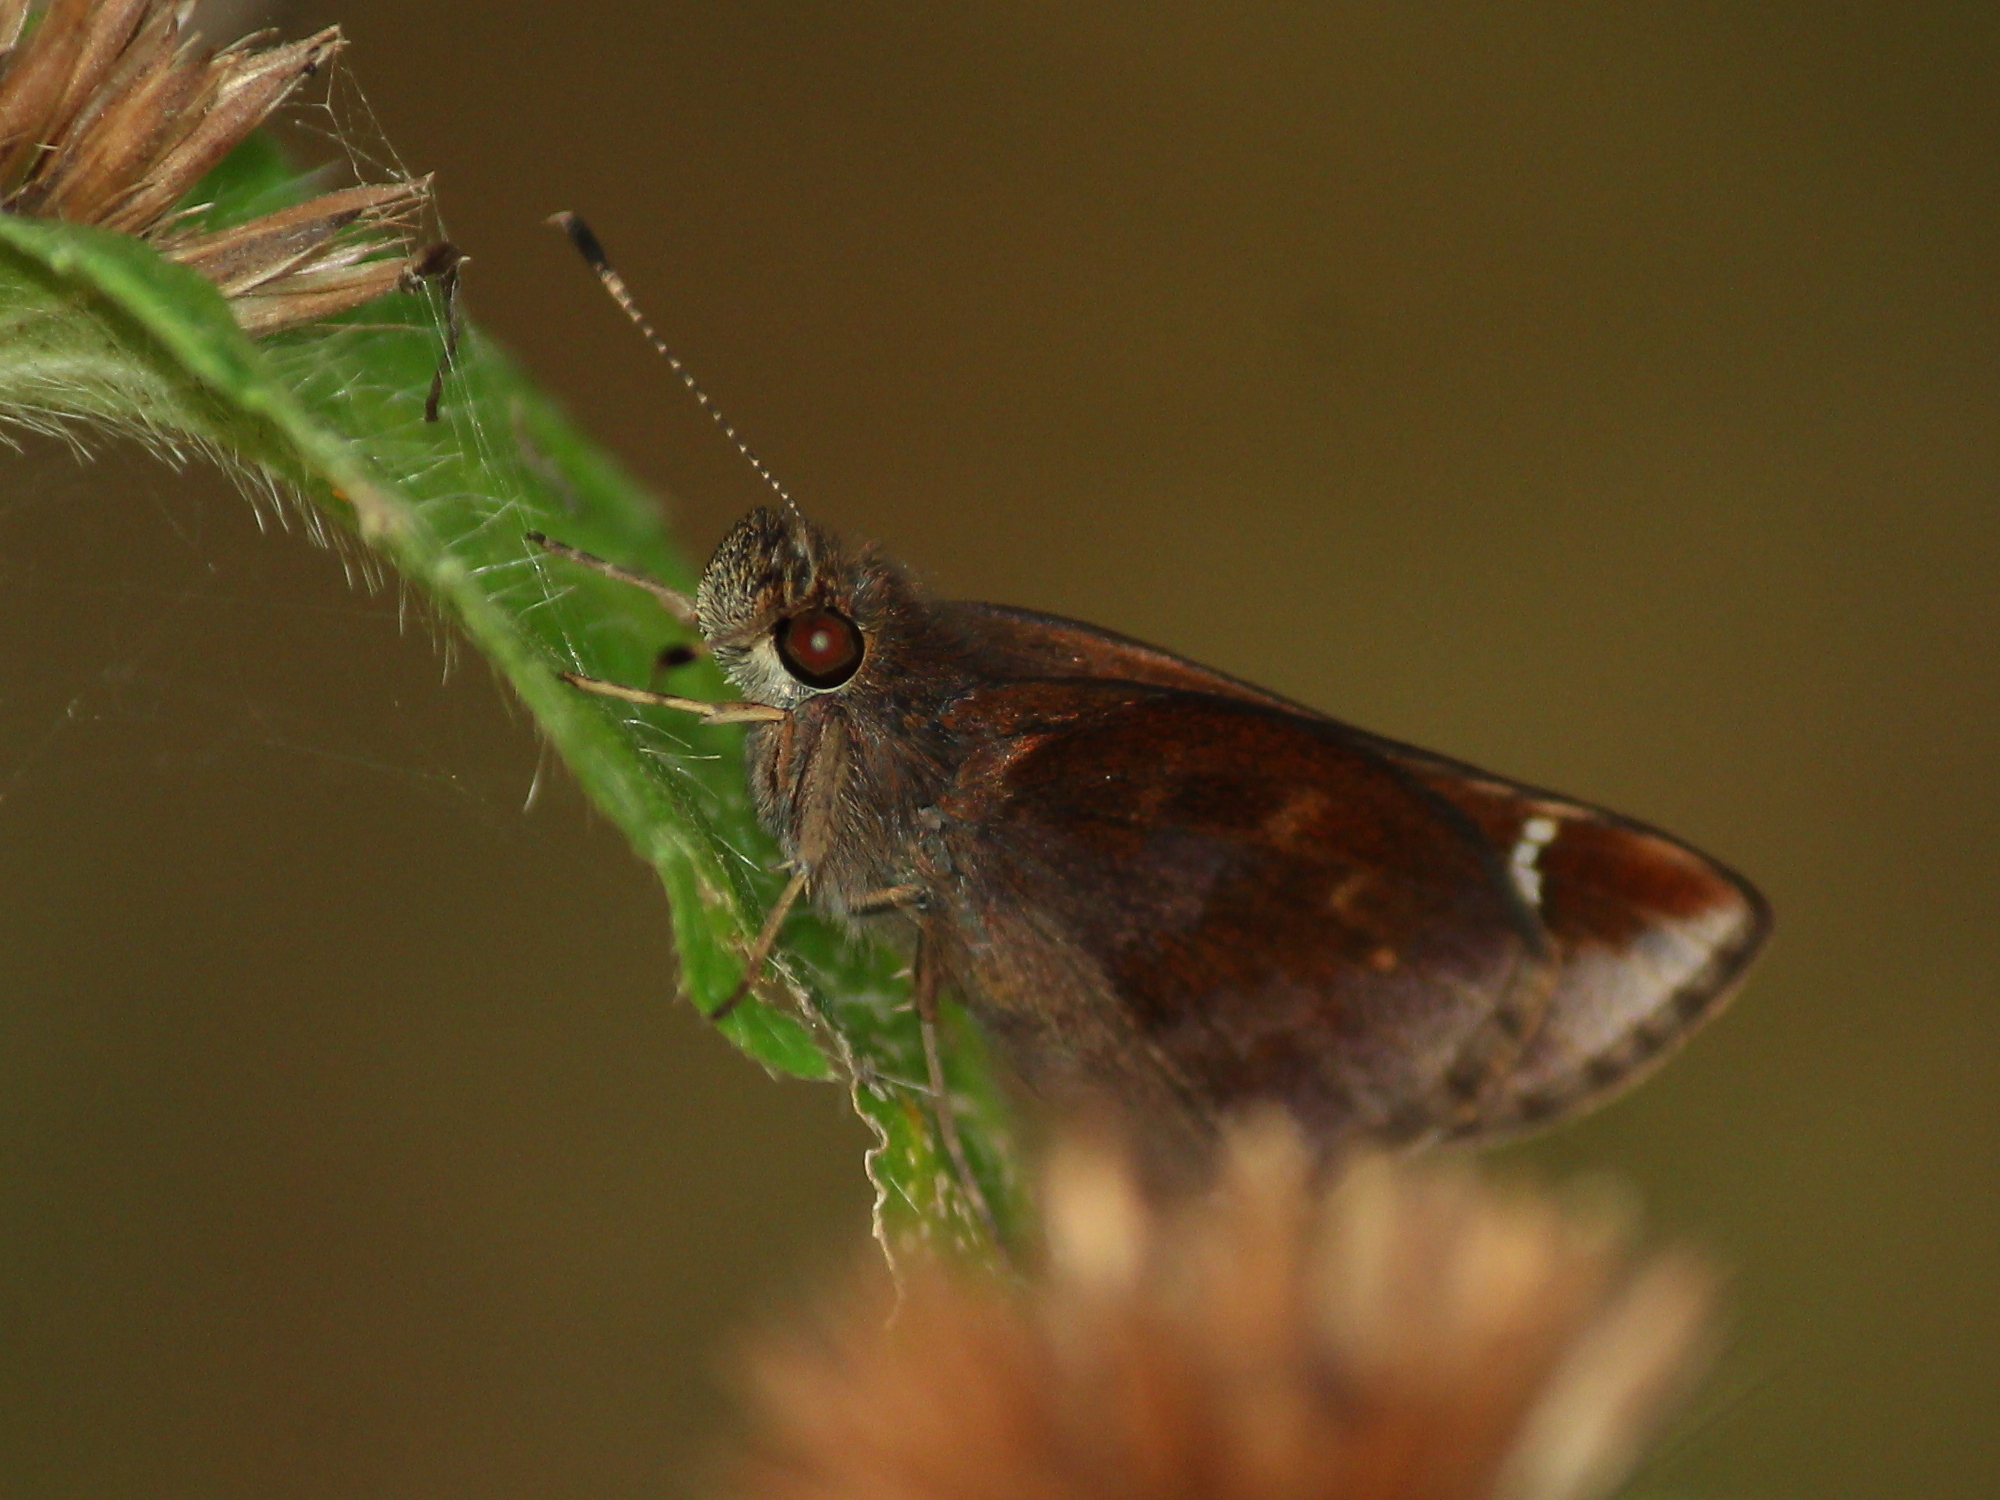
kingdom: Animalia
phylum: Arthropoda
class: Insecta
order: Lepidoptera
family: Hesperiidae
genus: Lerema
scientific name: Lerema accius
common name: Clouded skipper
